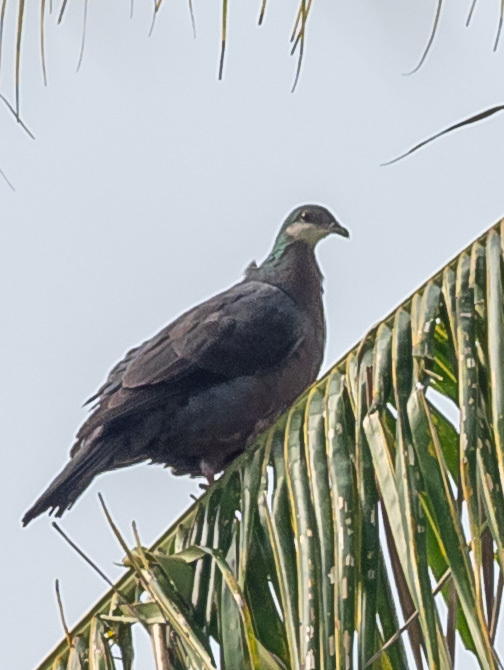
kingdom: Animalia
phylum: Chordata
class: Aves
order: Columbiformes
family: Columbidae
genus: Columba
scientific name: Columba vitiensis
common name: Metallic pigeon
